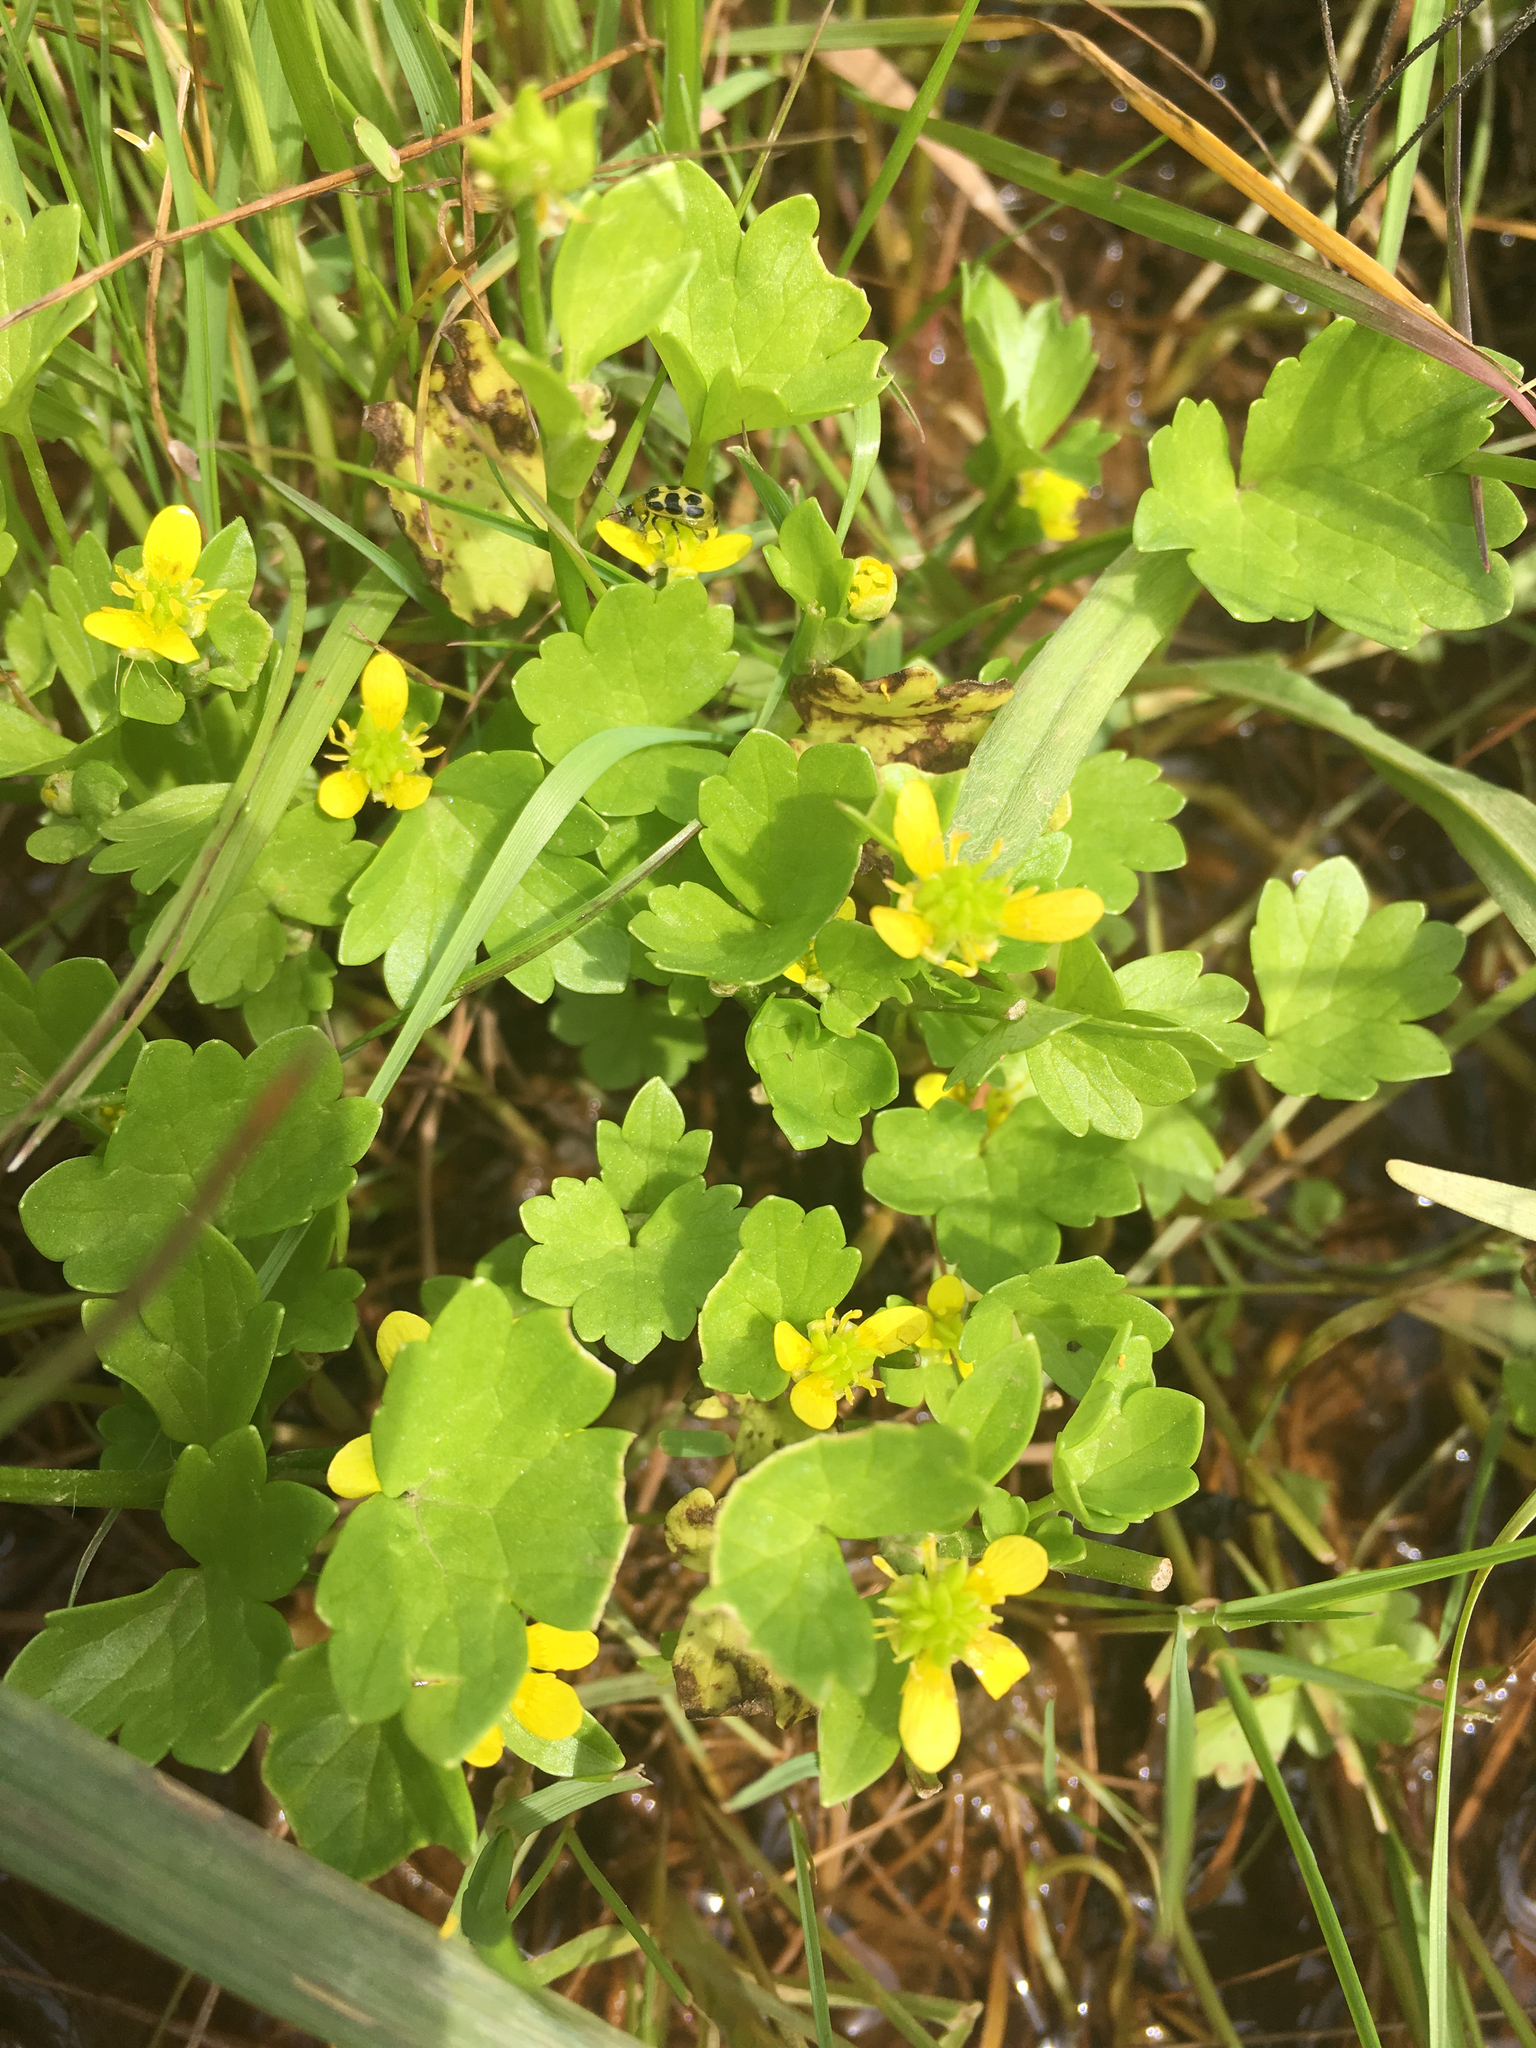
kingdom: Plantae
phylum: Tracheophyta
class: Magnoliopsida
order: Ranunculales
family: Ranunculaceae
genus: Ranunculus
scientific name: Ranunculus muricatus
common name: Rough-fruited buttercup
